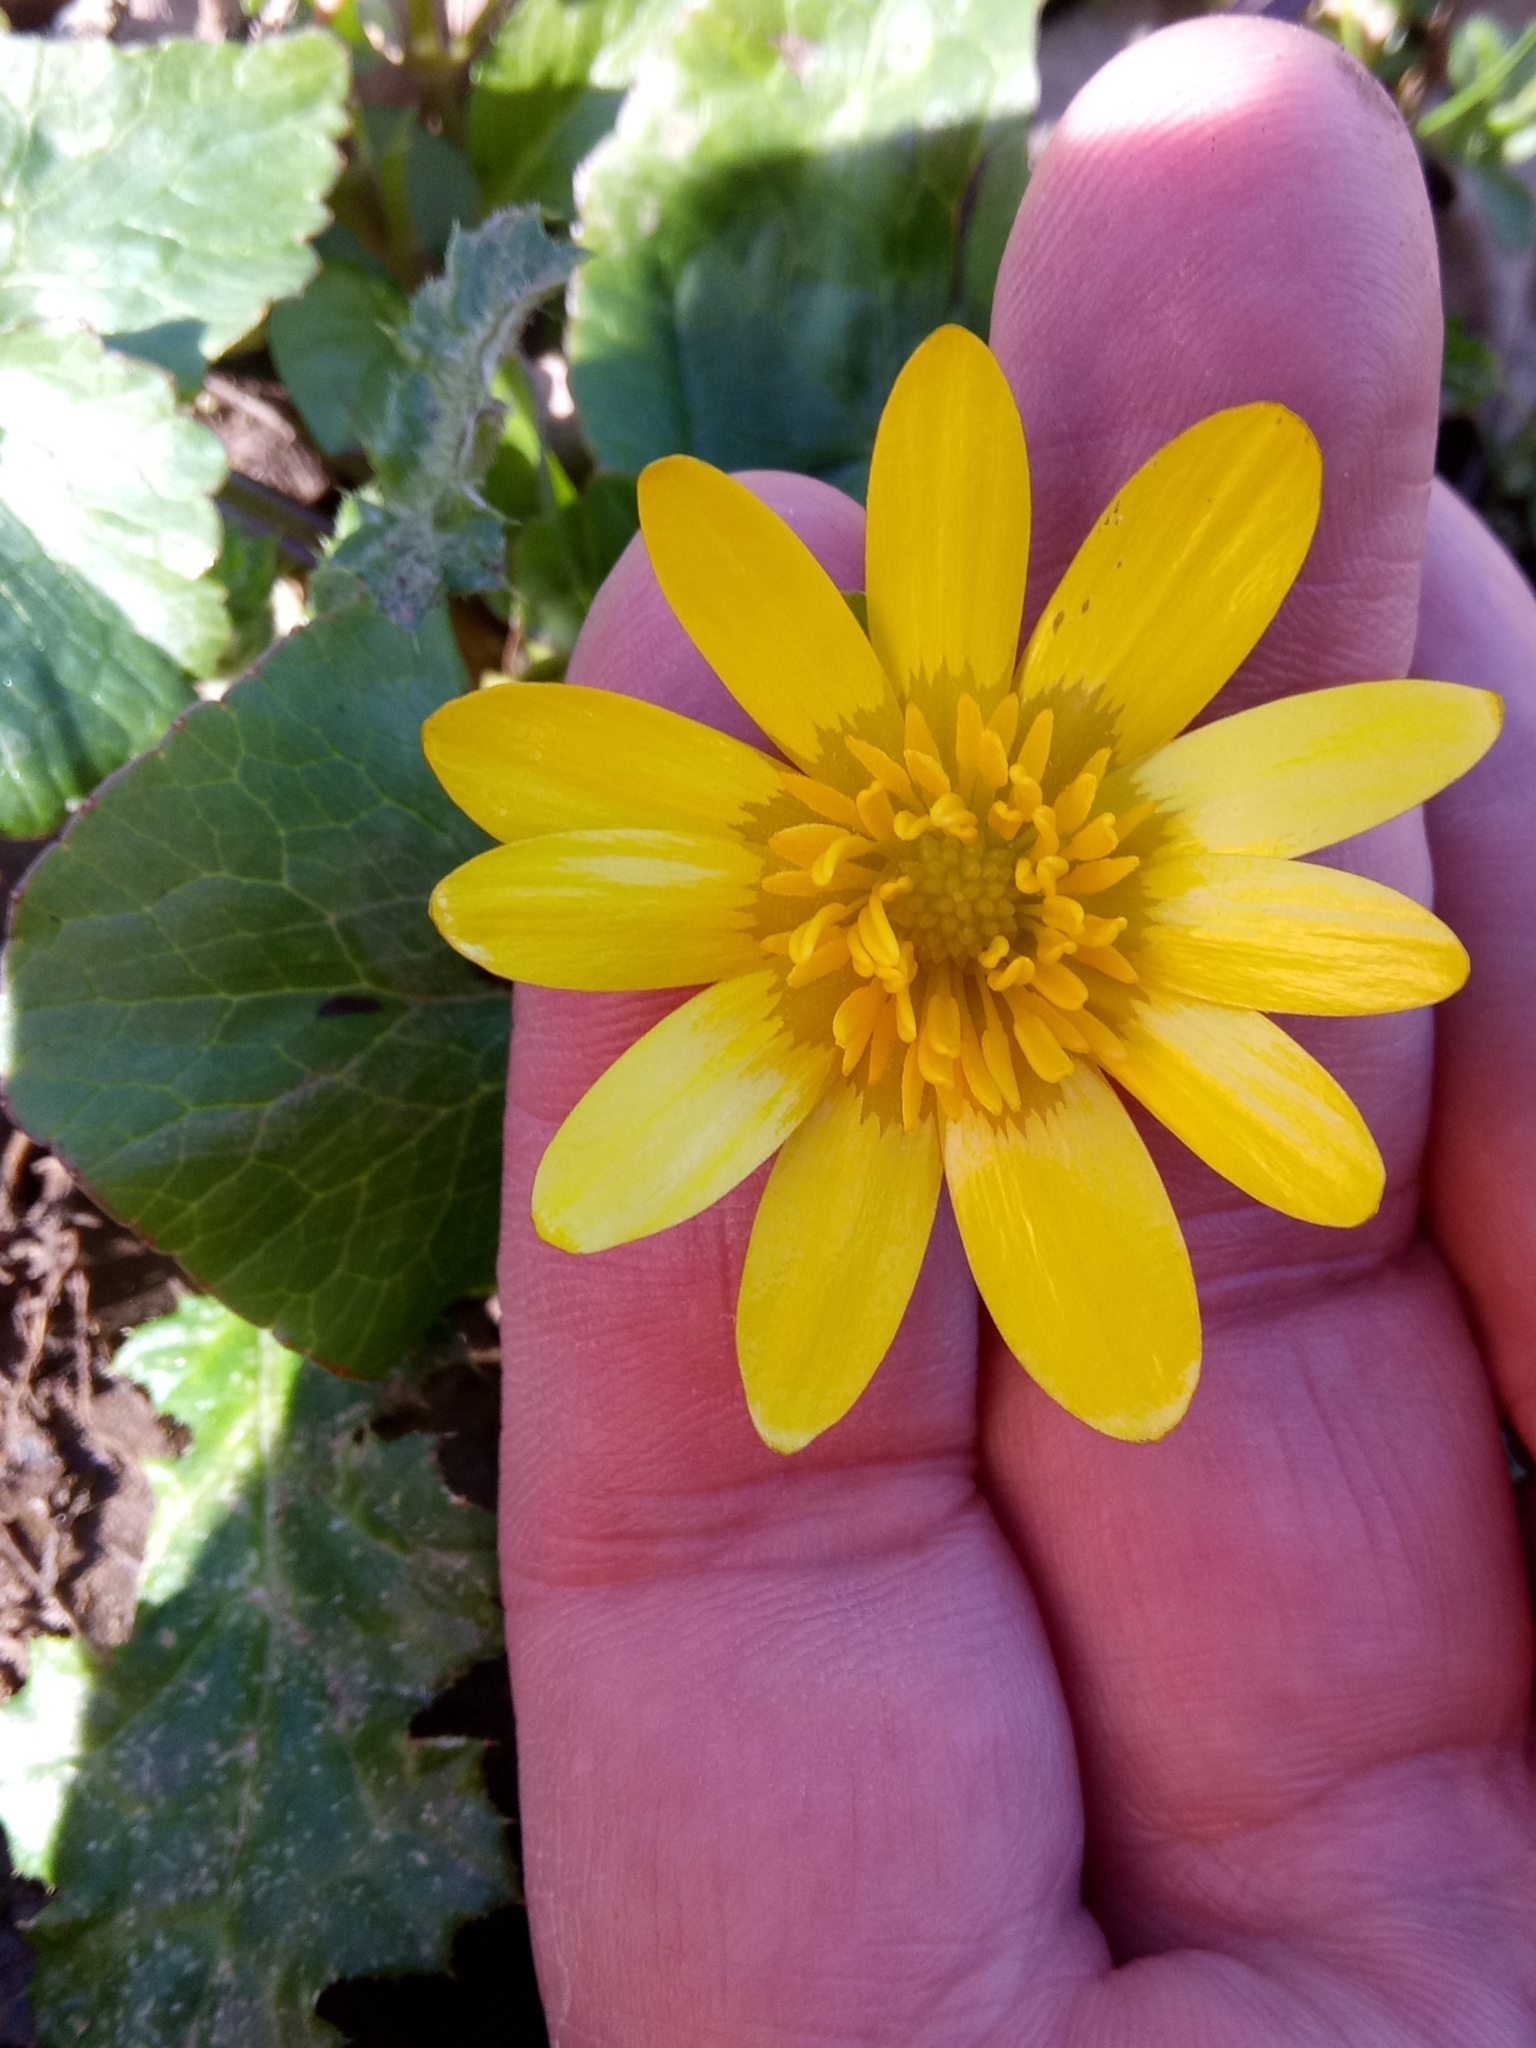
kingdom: Plantae
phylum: Tracheophyta
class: Magnoliopsida
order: Ranunculales
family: Ranunculaceae
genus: Ficaria
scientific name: Ficaria verna
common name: Lesser celandine
